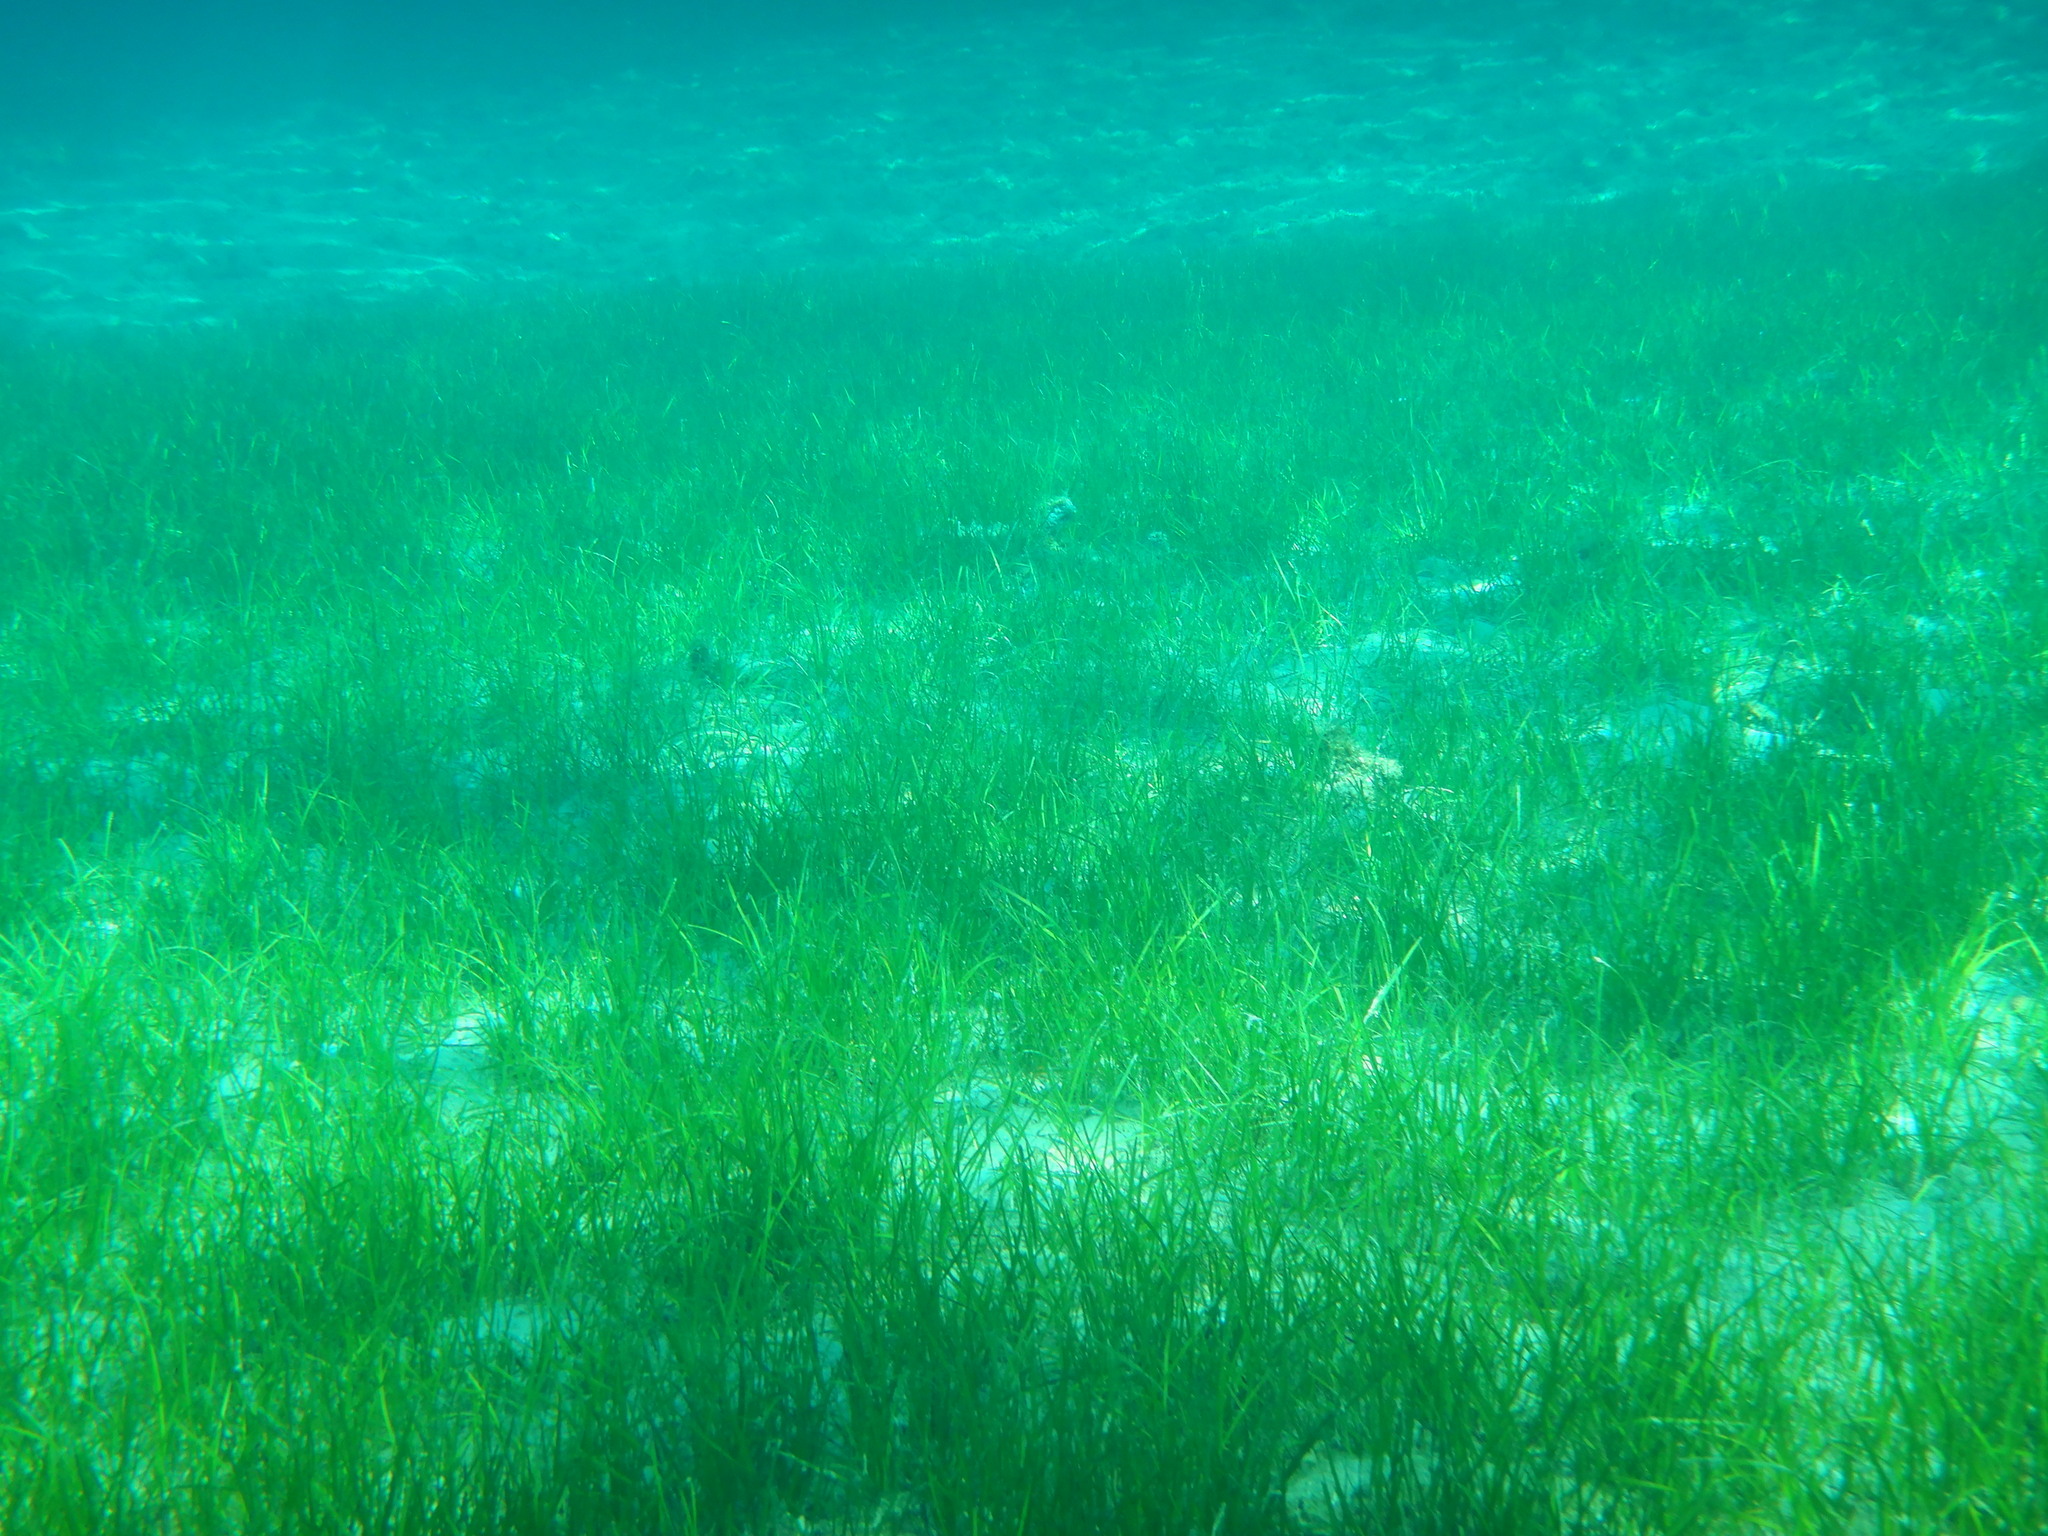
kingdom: Plantae
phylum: Tracheophyta
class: Liliopsida
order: Alismatales
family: Cymodoceaceae
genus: Cymodocea
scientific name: Cymodocea nodosa
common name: Slender seagrass
